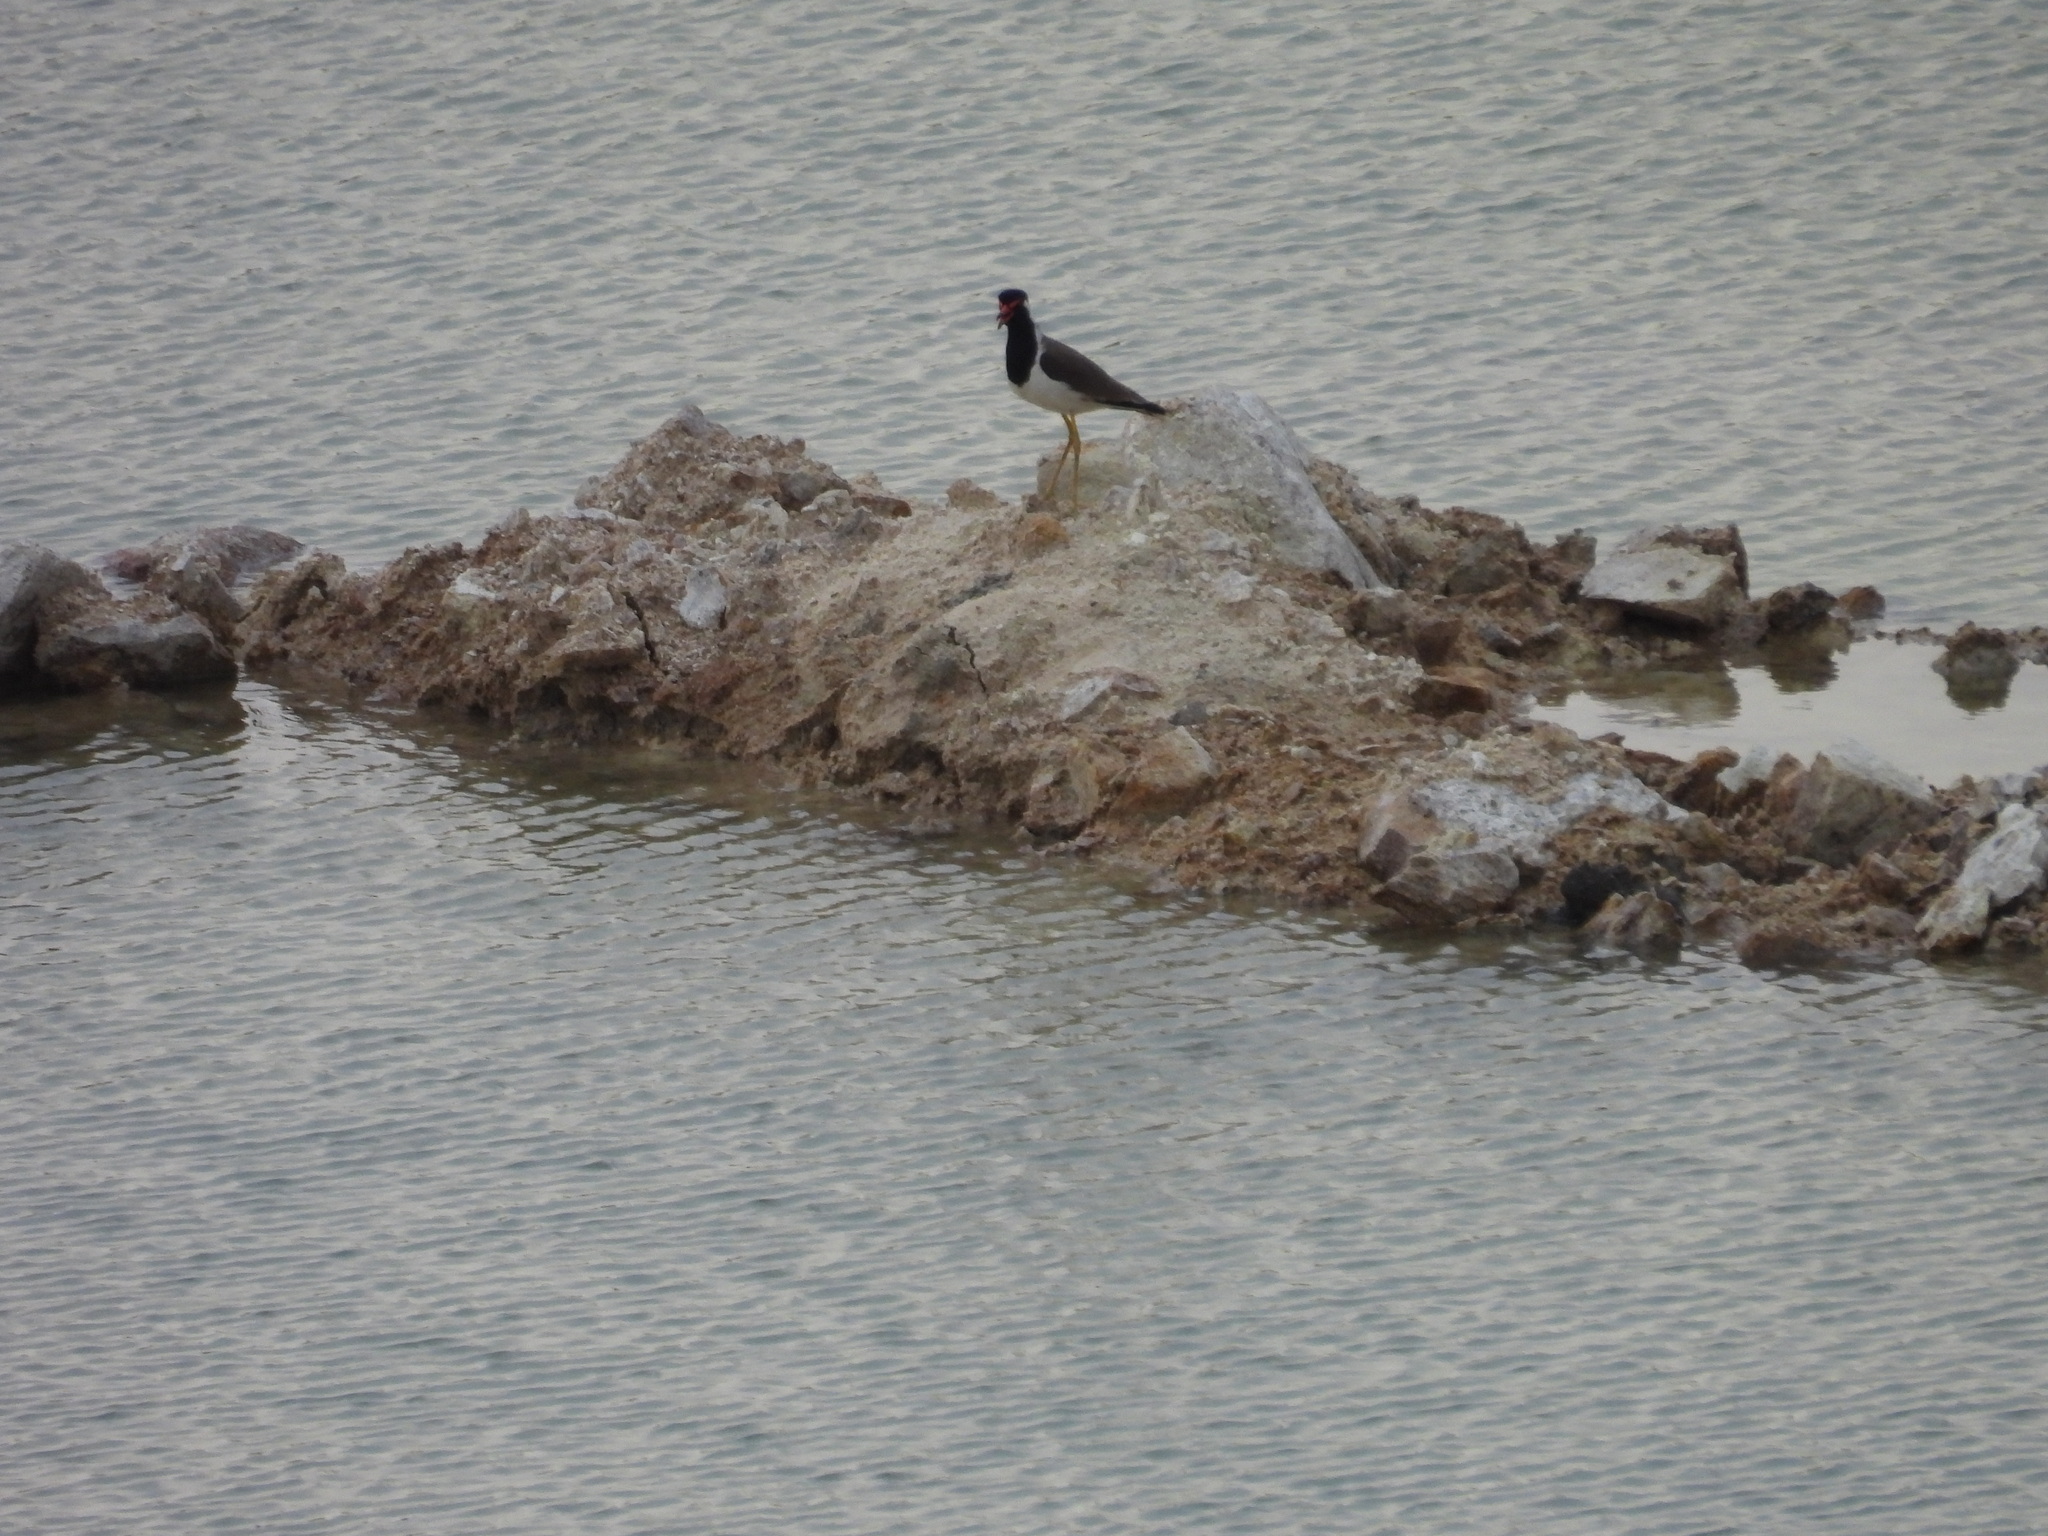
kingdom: Animalia
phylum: Chordata
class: Aves
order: Charadriiformes
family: Charadriidae
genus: Vanellus
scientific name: Vanellus indicus
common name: Red-wattled lapwing
